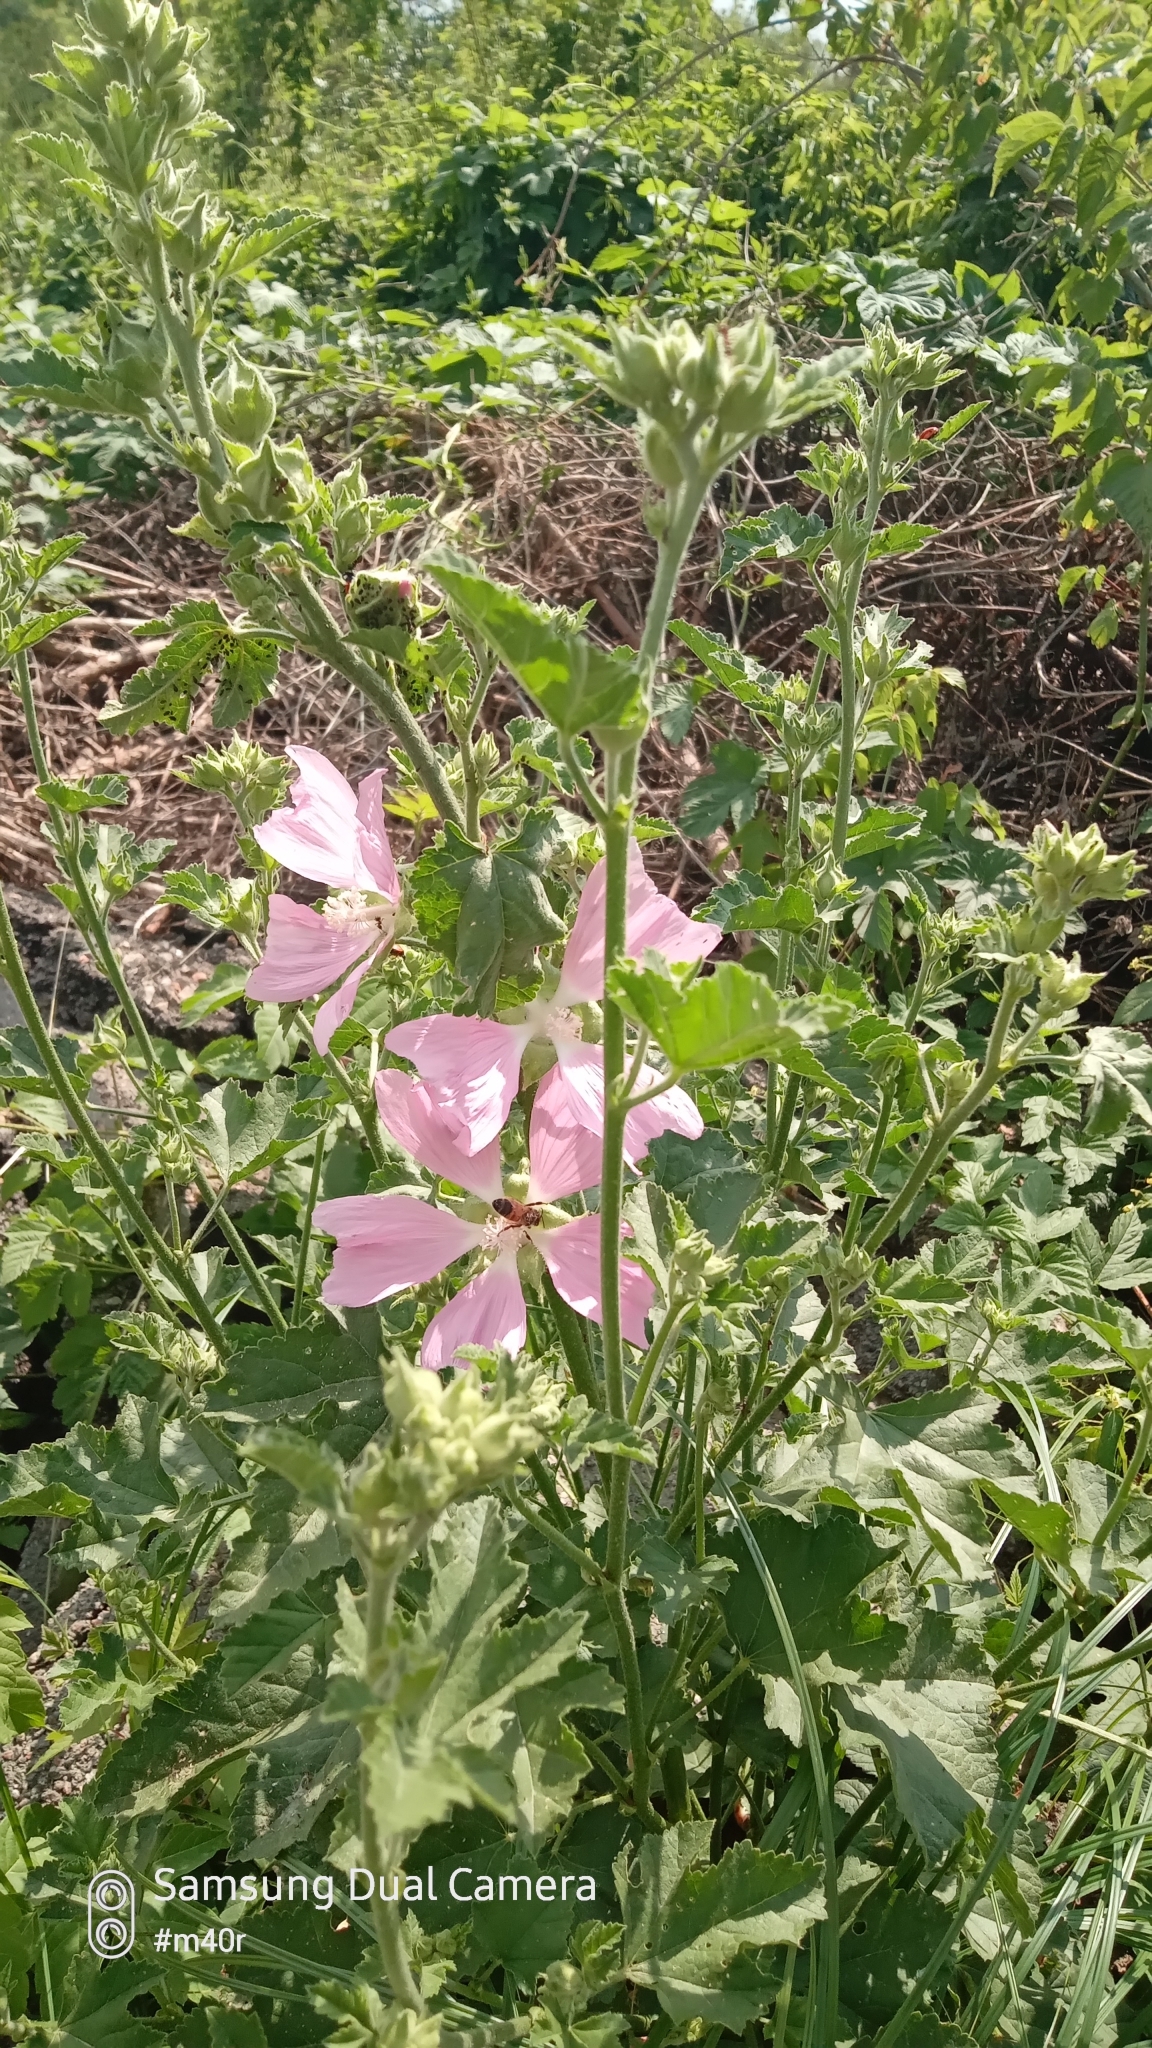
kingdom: Plantae
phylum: Tracheophyta
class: Magnoliopsida
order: Malvales
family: Malvaceae
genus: Malva
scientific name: Malva thuringiaca
